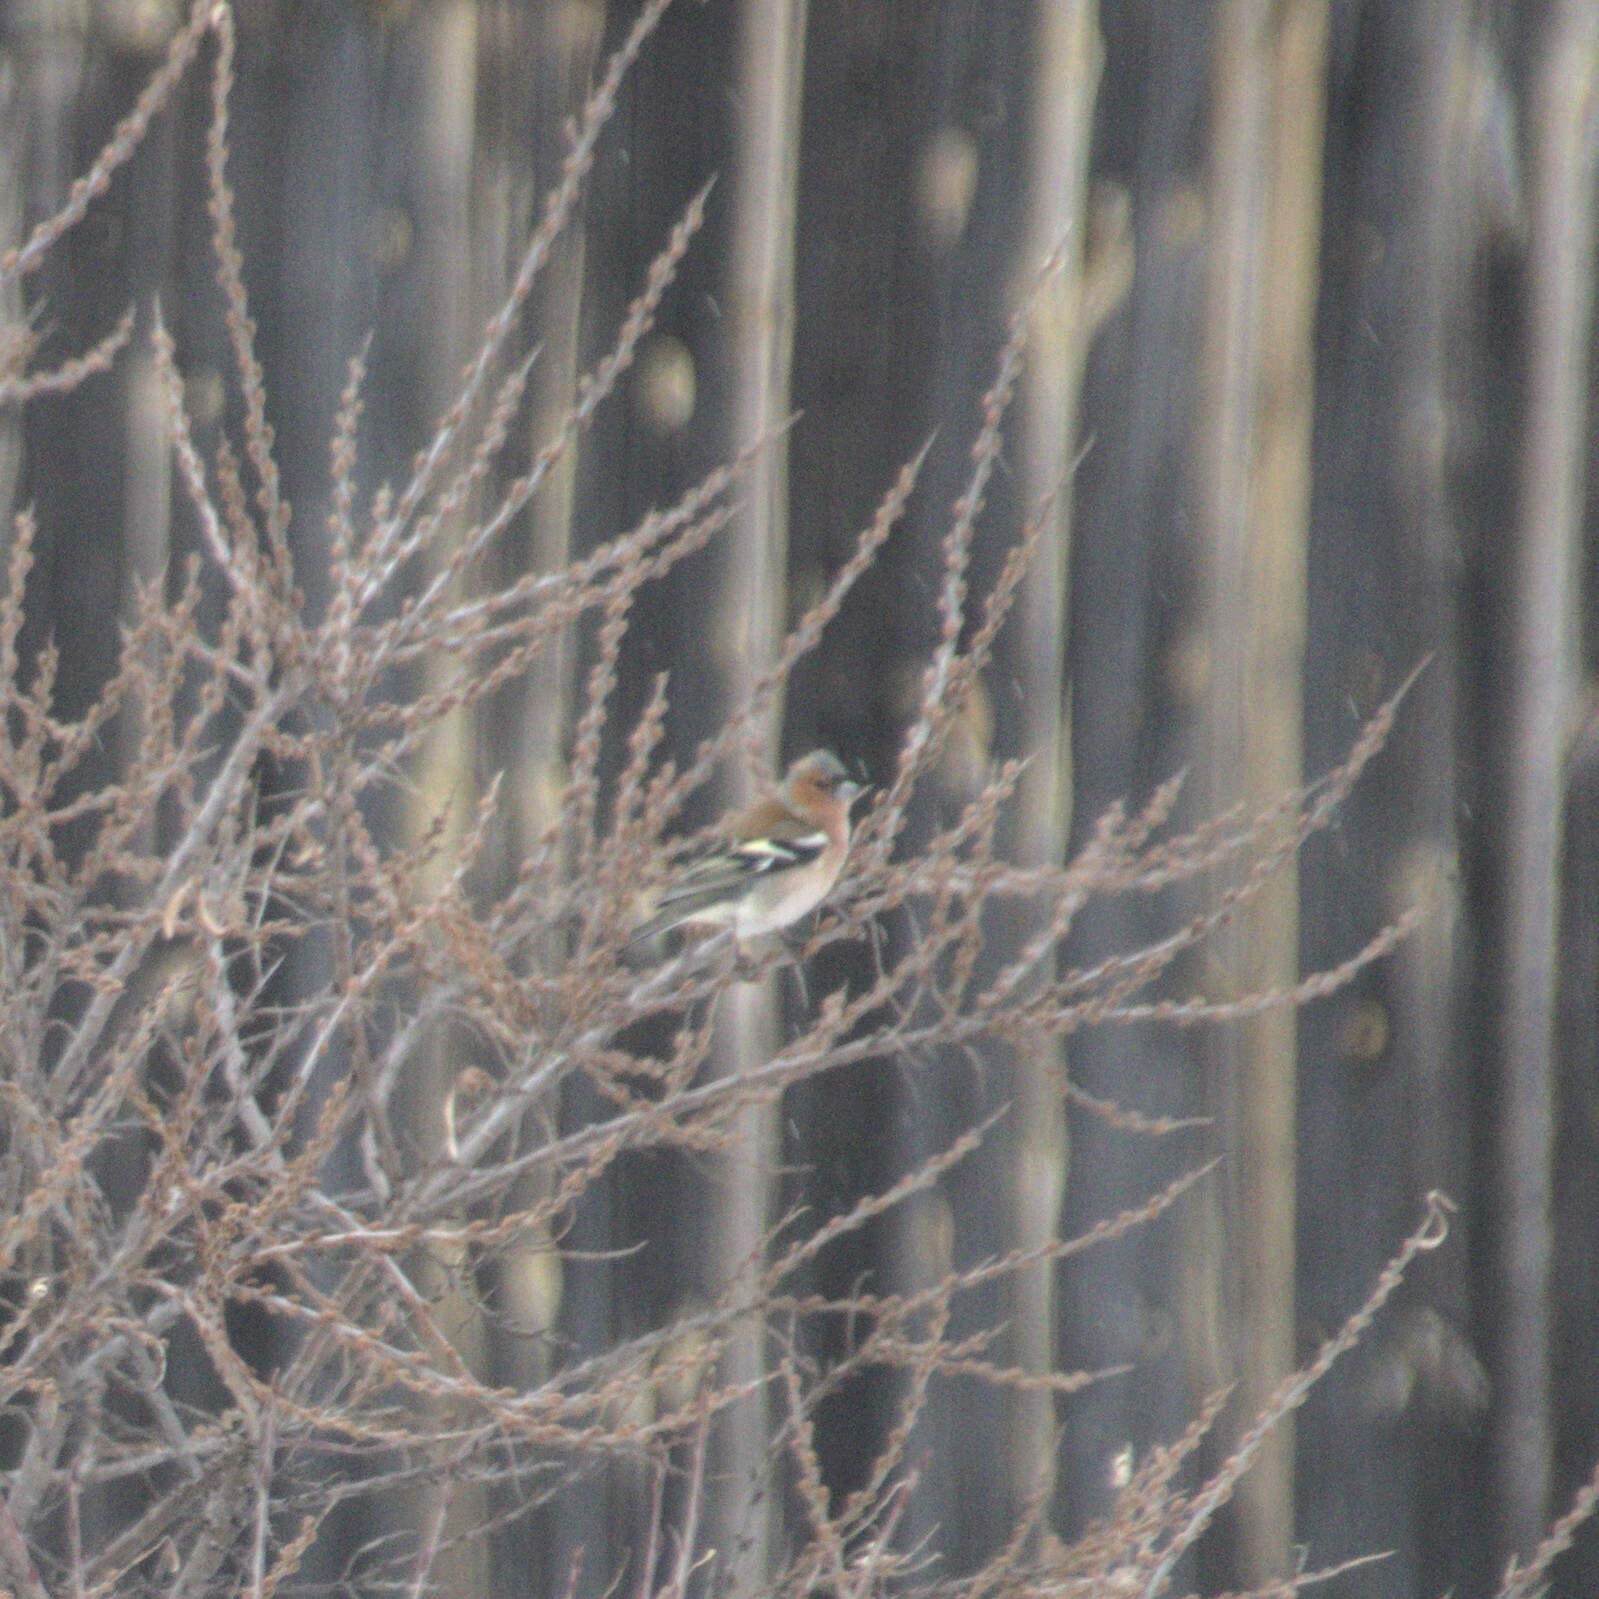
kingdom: Animalia
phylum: Chordata
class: Aves
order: Passeriformes
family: Fringillidae
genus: Fringilla
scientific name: Fringilla coelebs
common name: Common chaffinch
